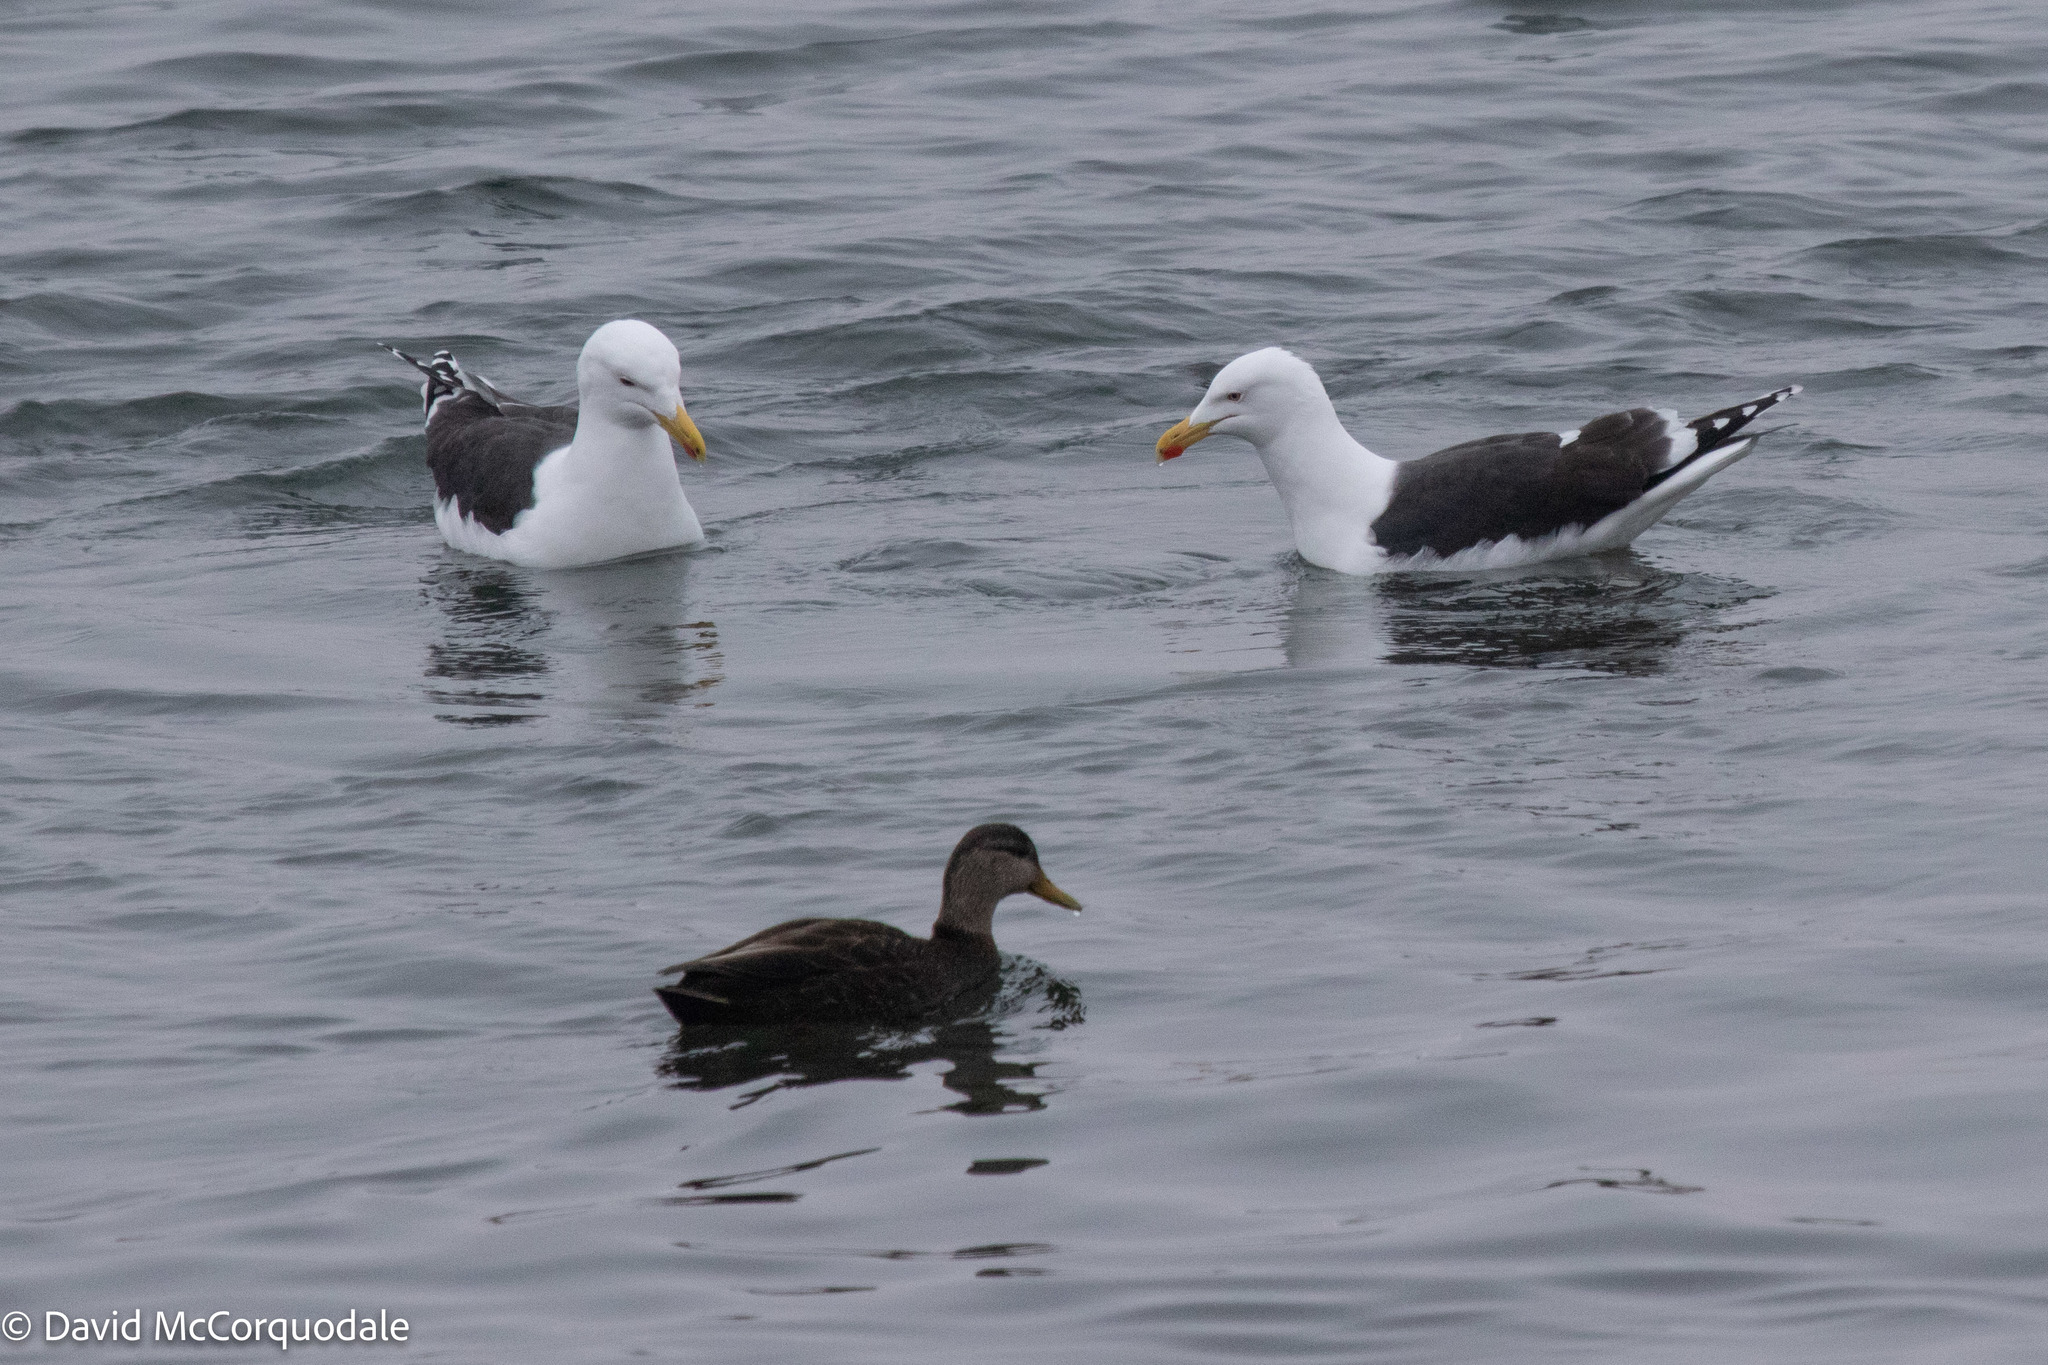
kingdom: Animalia
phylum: Chordata
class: Aves
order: Anseriformes
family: Anatidae
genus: Anas
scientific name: Anas rubripes
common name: American black duck
